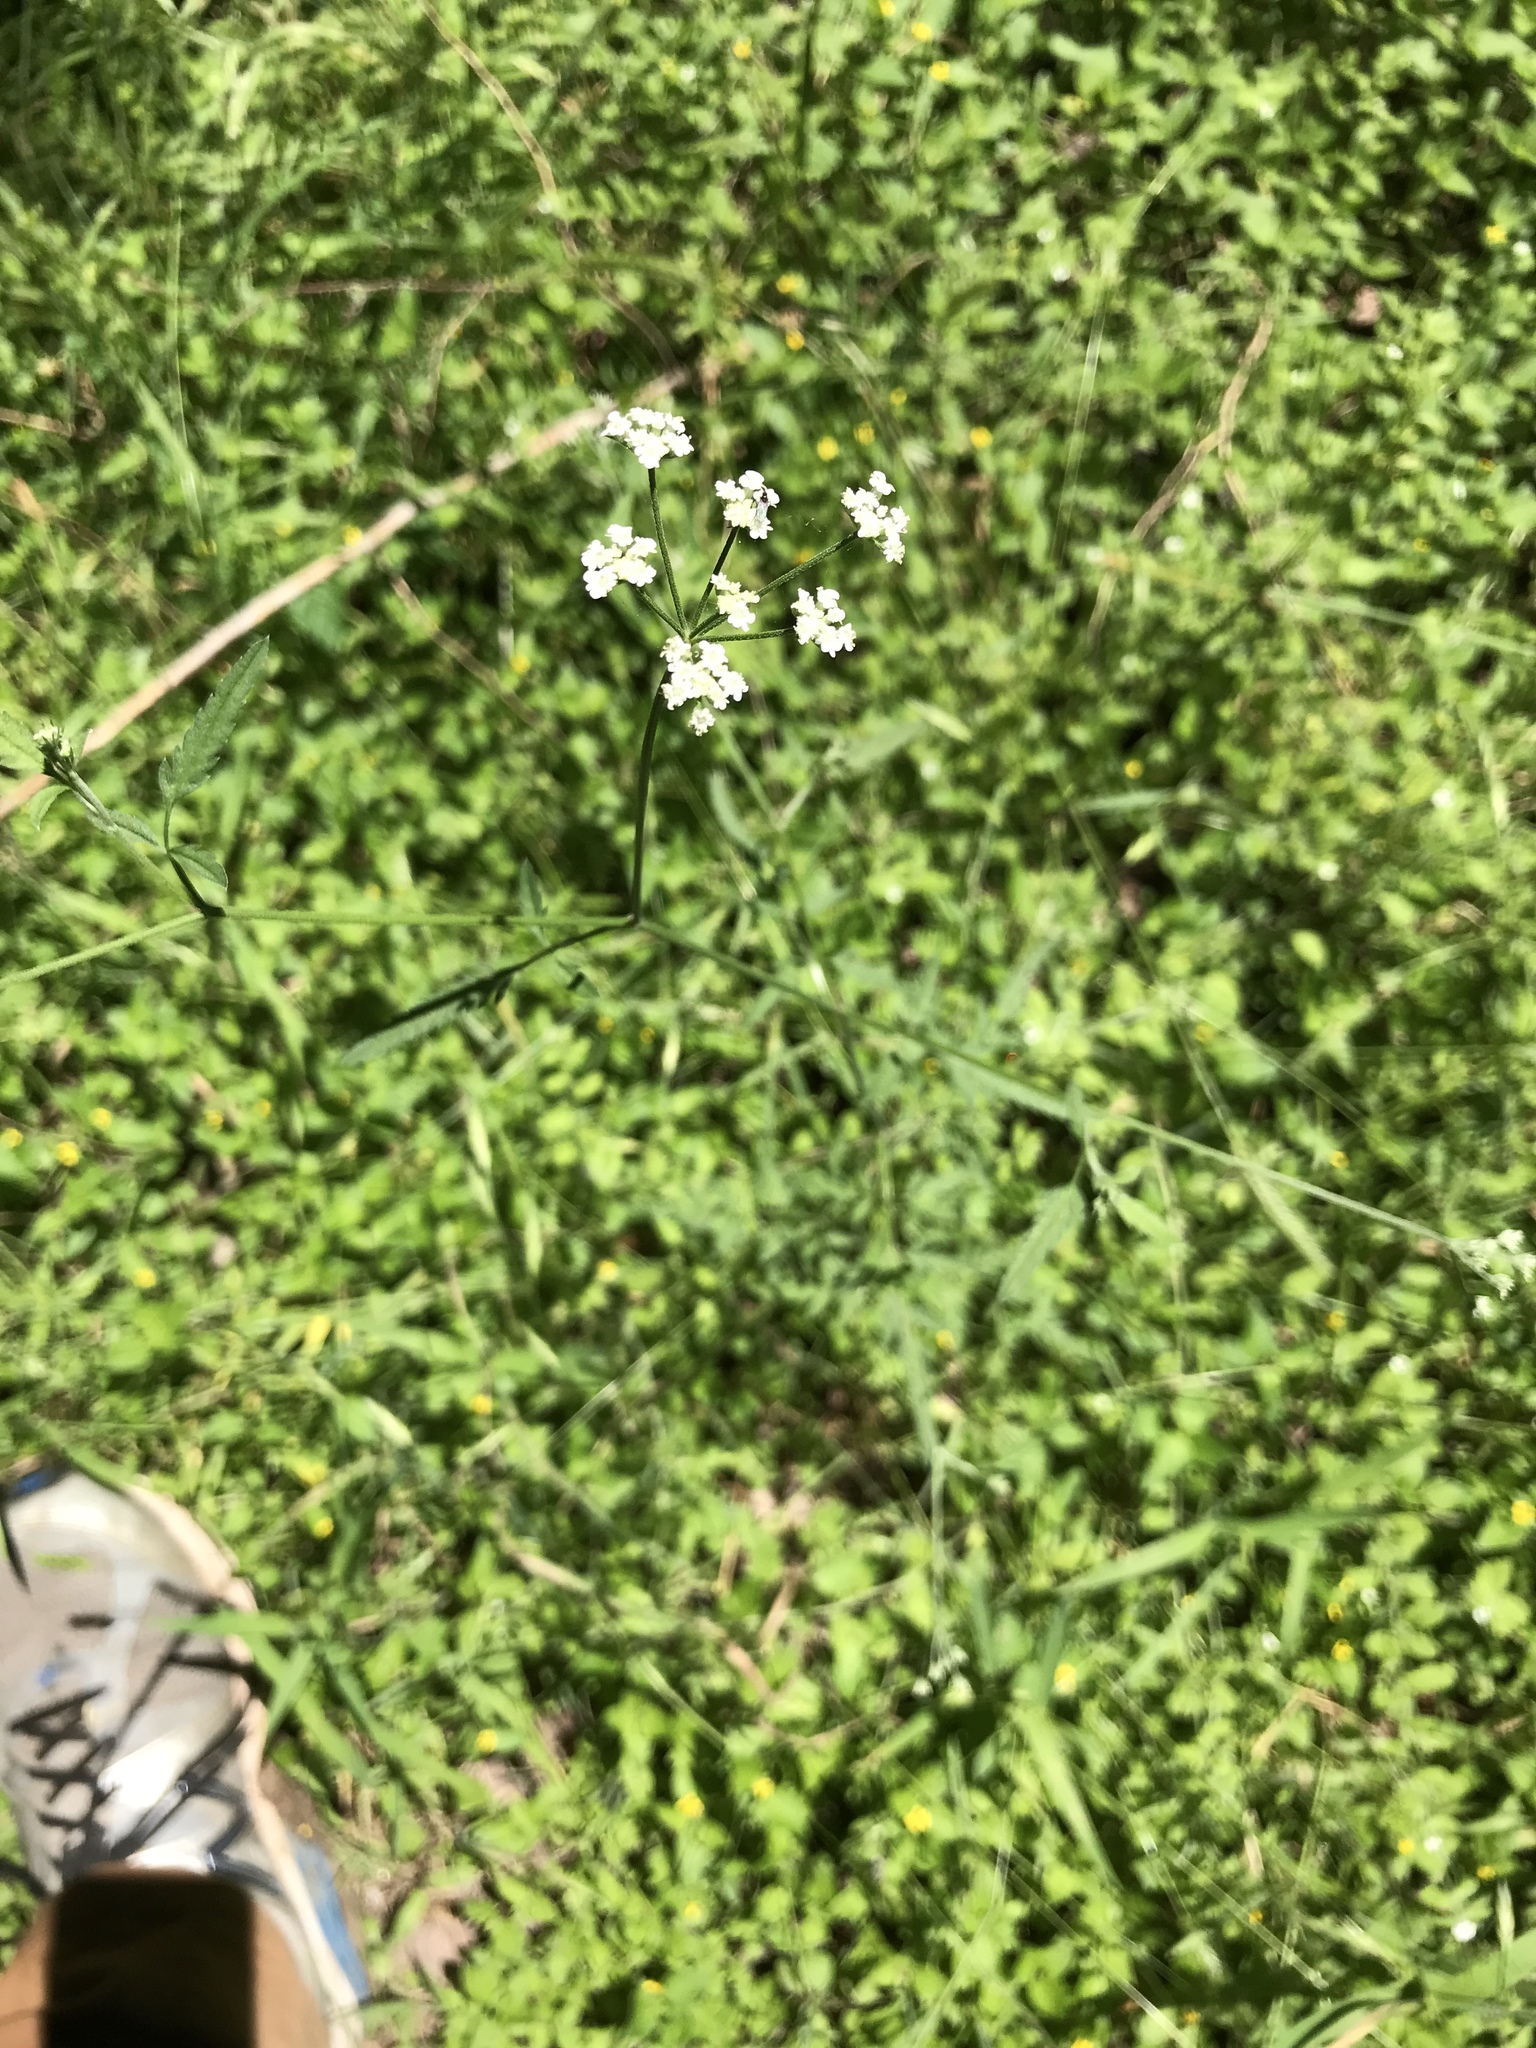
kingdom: Plantae
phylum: Tracheophyta
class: Magnoliopsida
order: Apiales
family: Apiaceae
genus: Torilis
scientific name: Torilis arvensis
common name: Spreading hedge-parsley
